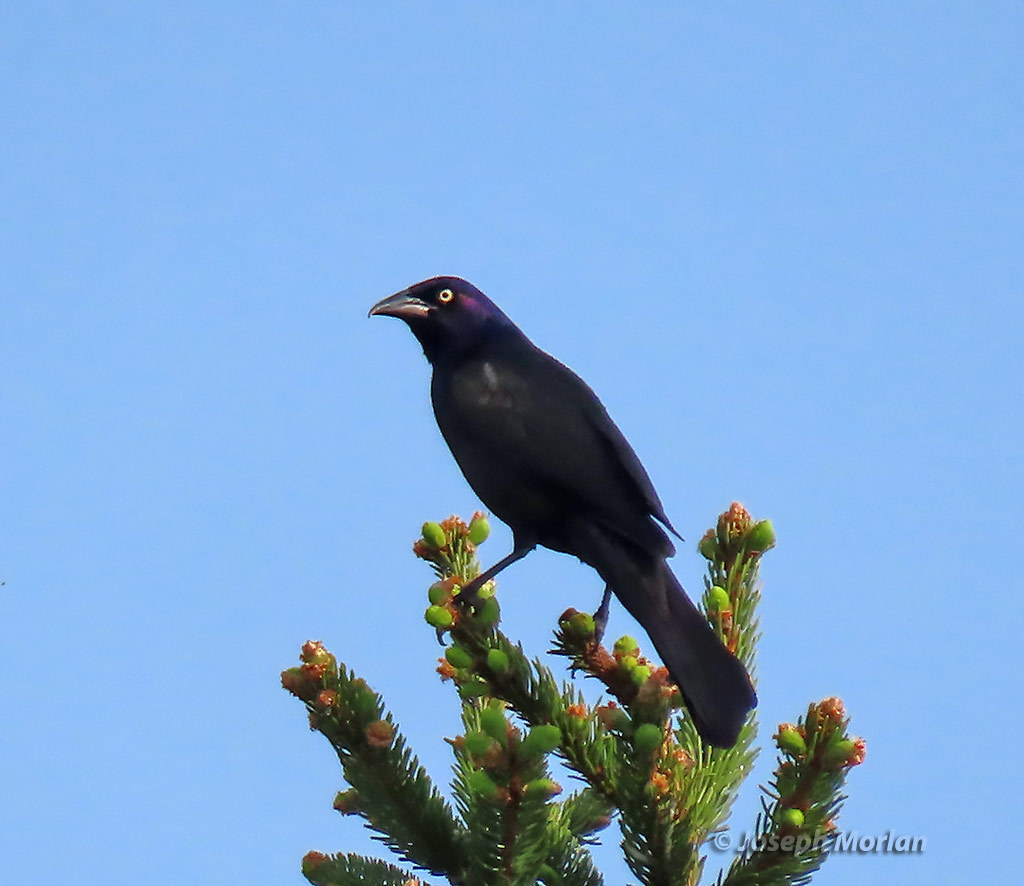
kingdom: Animalia
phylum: Chordata
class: Aves
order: Passeriformes
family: Icteridae
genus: Quiscalus
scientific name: Quiscalus quiscula
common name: Common grackle
